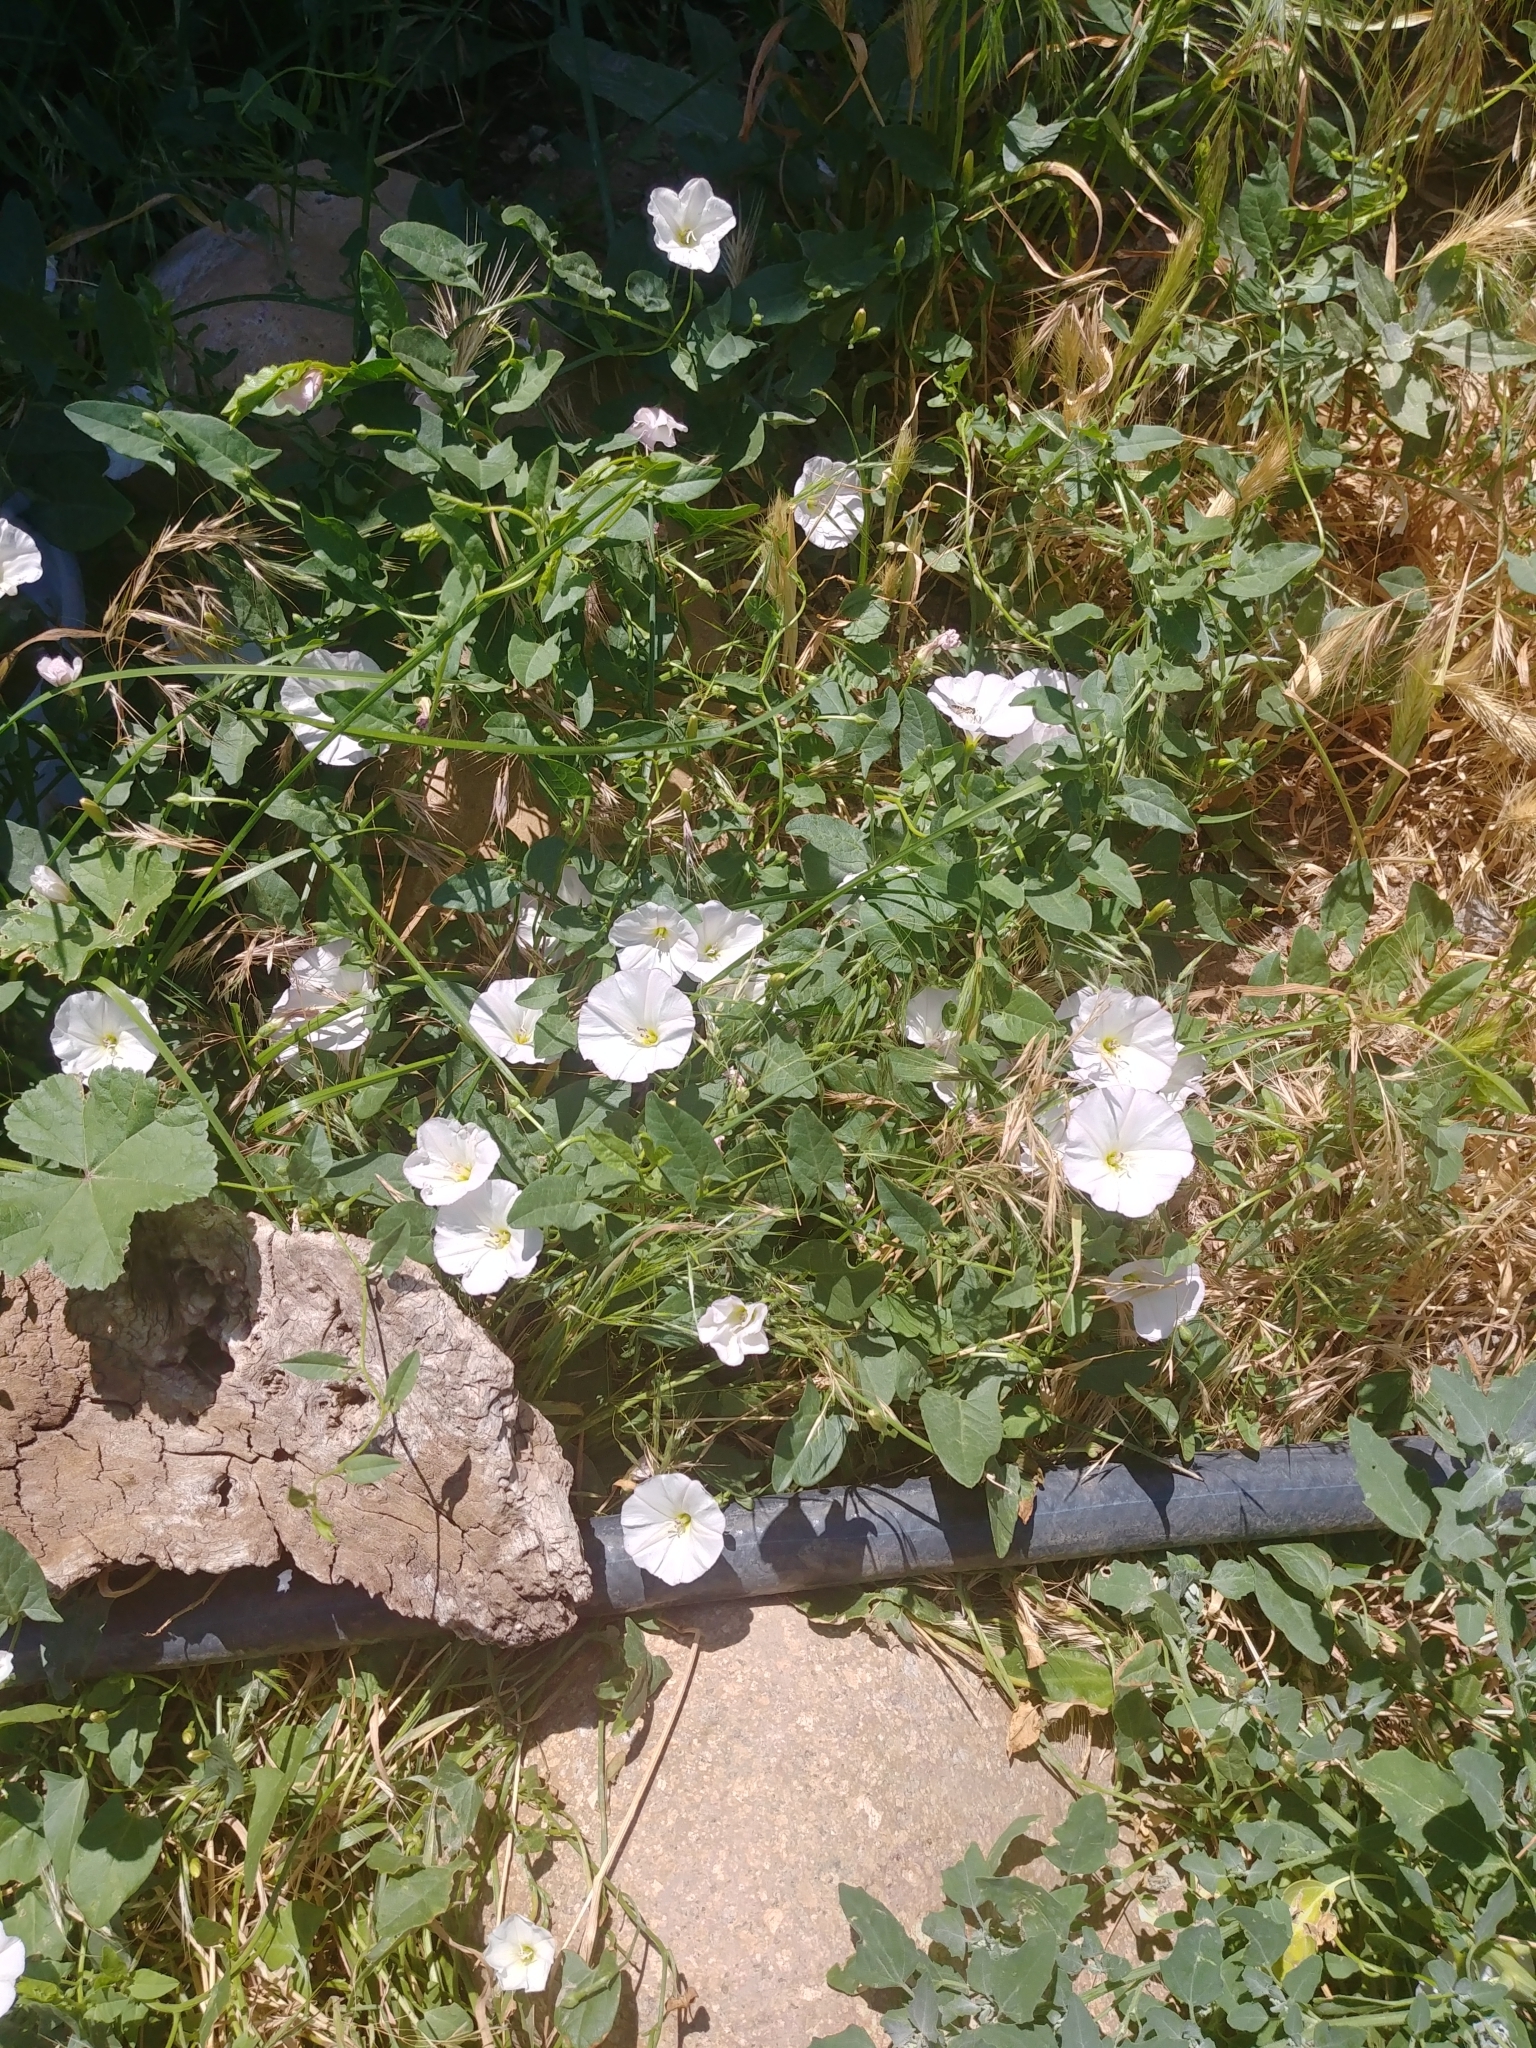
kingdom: Plantae
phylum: Tracheophyta
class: Magnoliopsida
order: Solanales
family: Convolvulaceae
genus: Convolvulus
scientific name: Convolvulus arvensis
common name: Field bindweed
